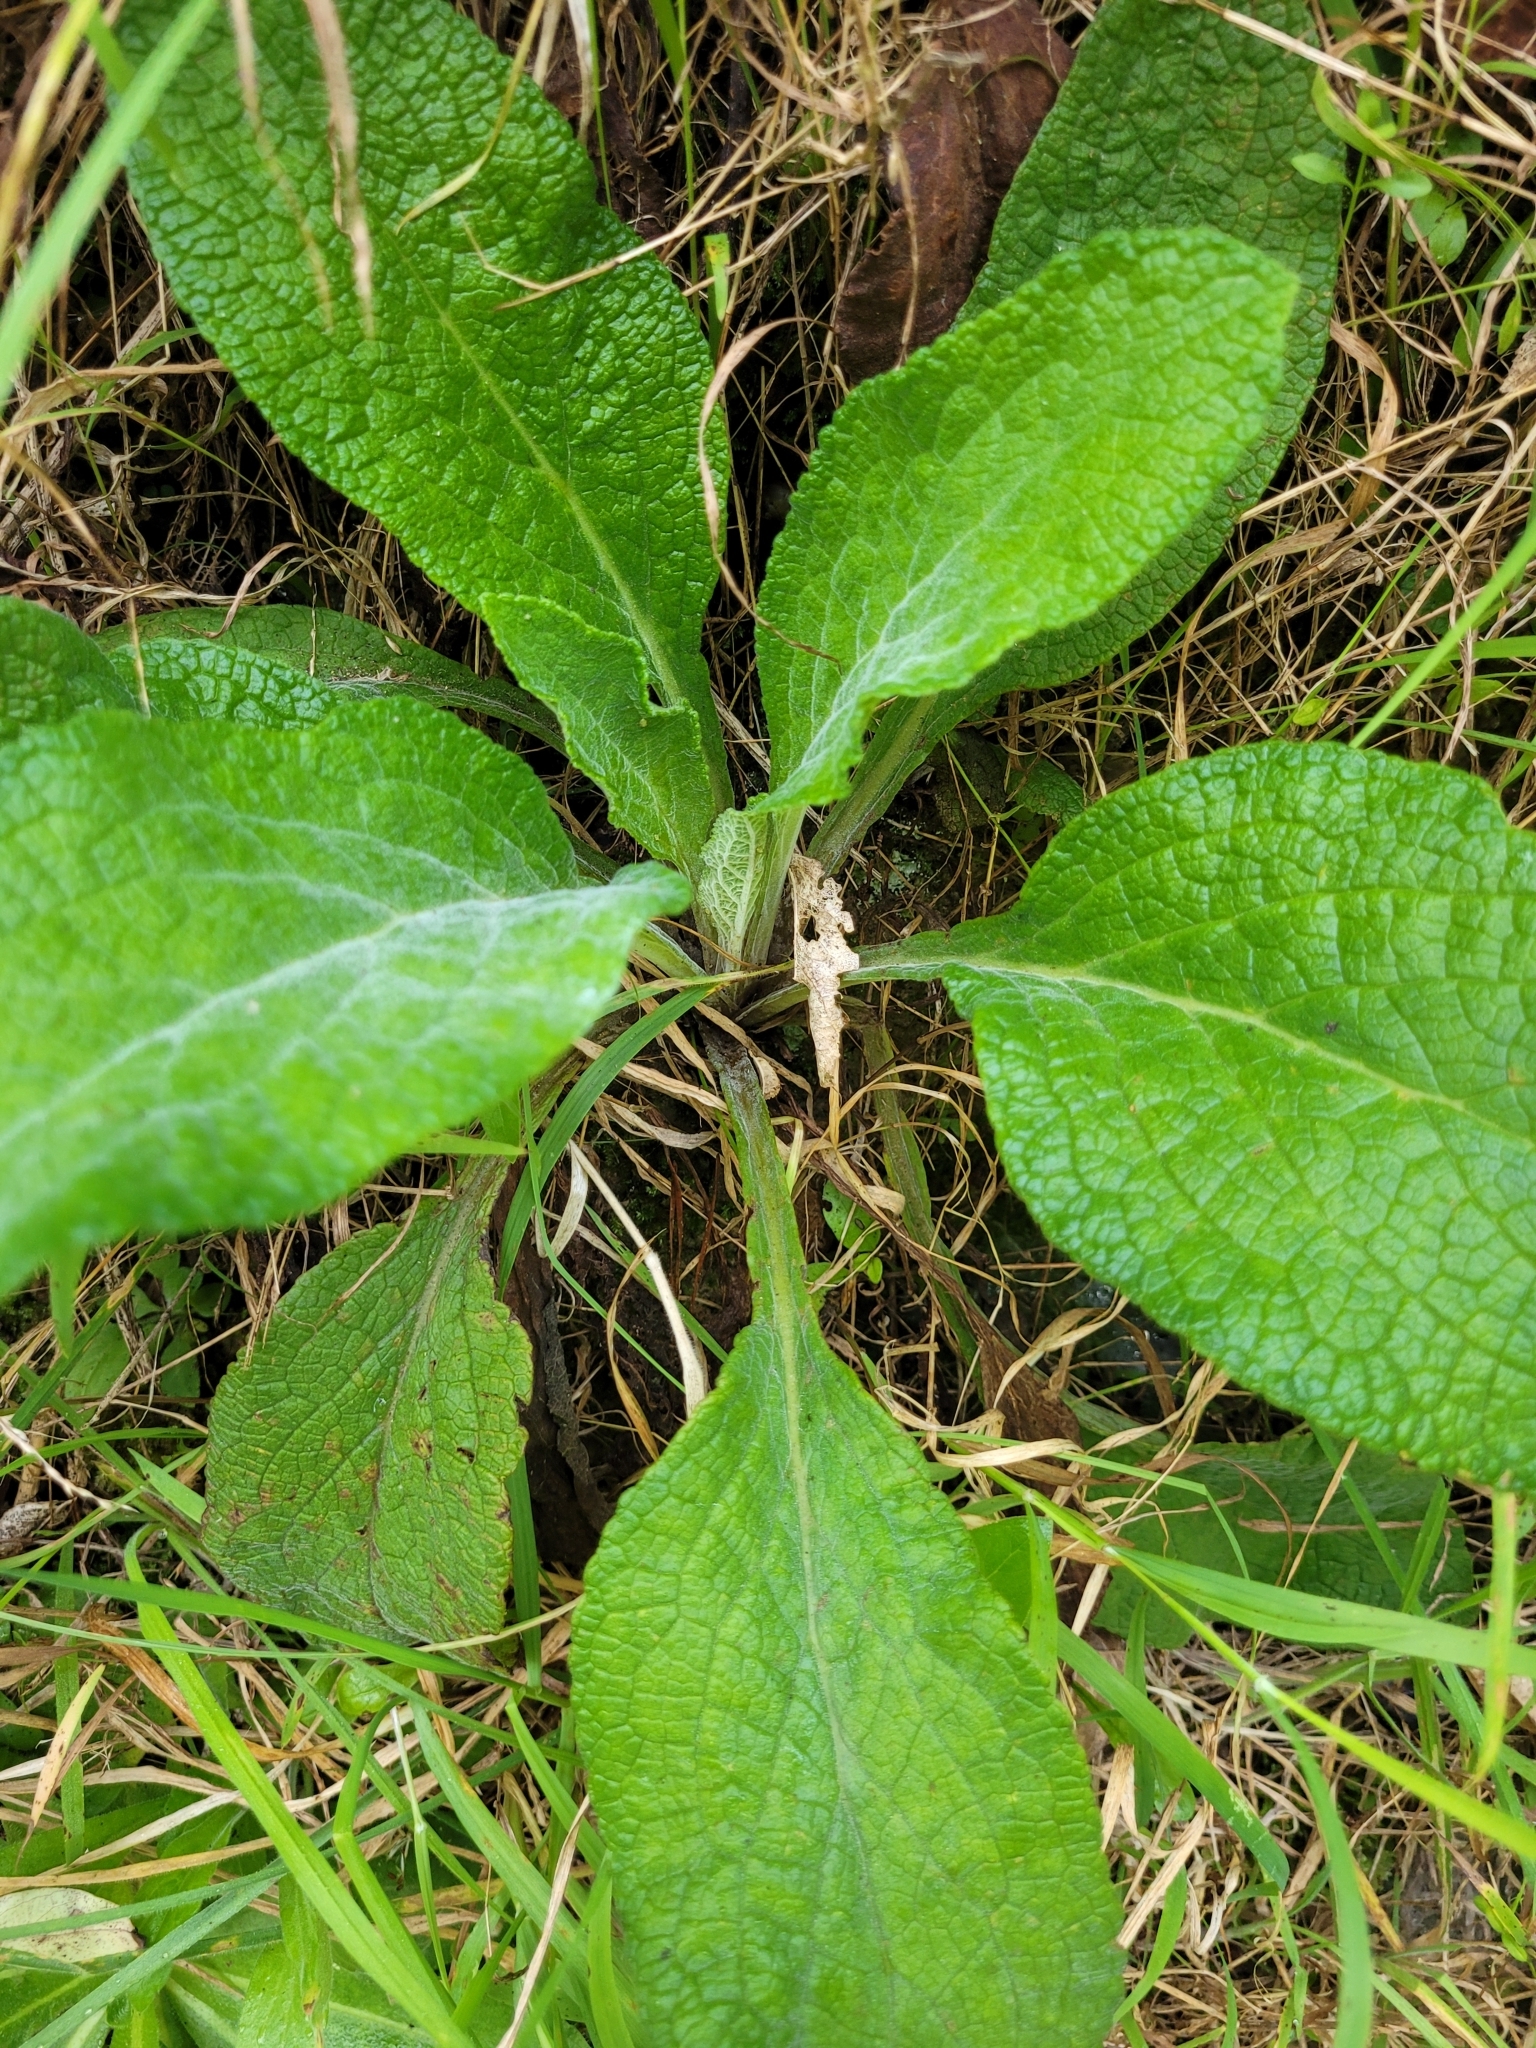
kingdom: Plantae
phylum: Tracheophyta
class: Magnoliopsida
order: Lamiales
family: Plantaginaceae
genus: Digitalis
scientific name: Digitalis purpurea
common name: Foxglove
